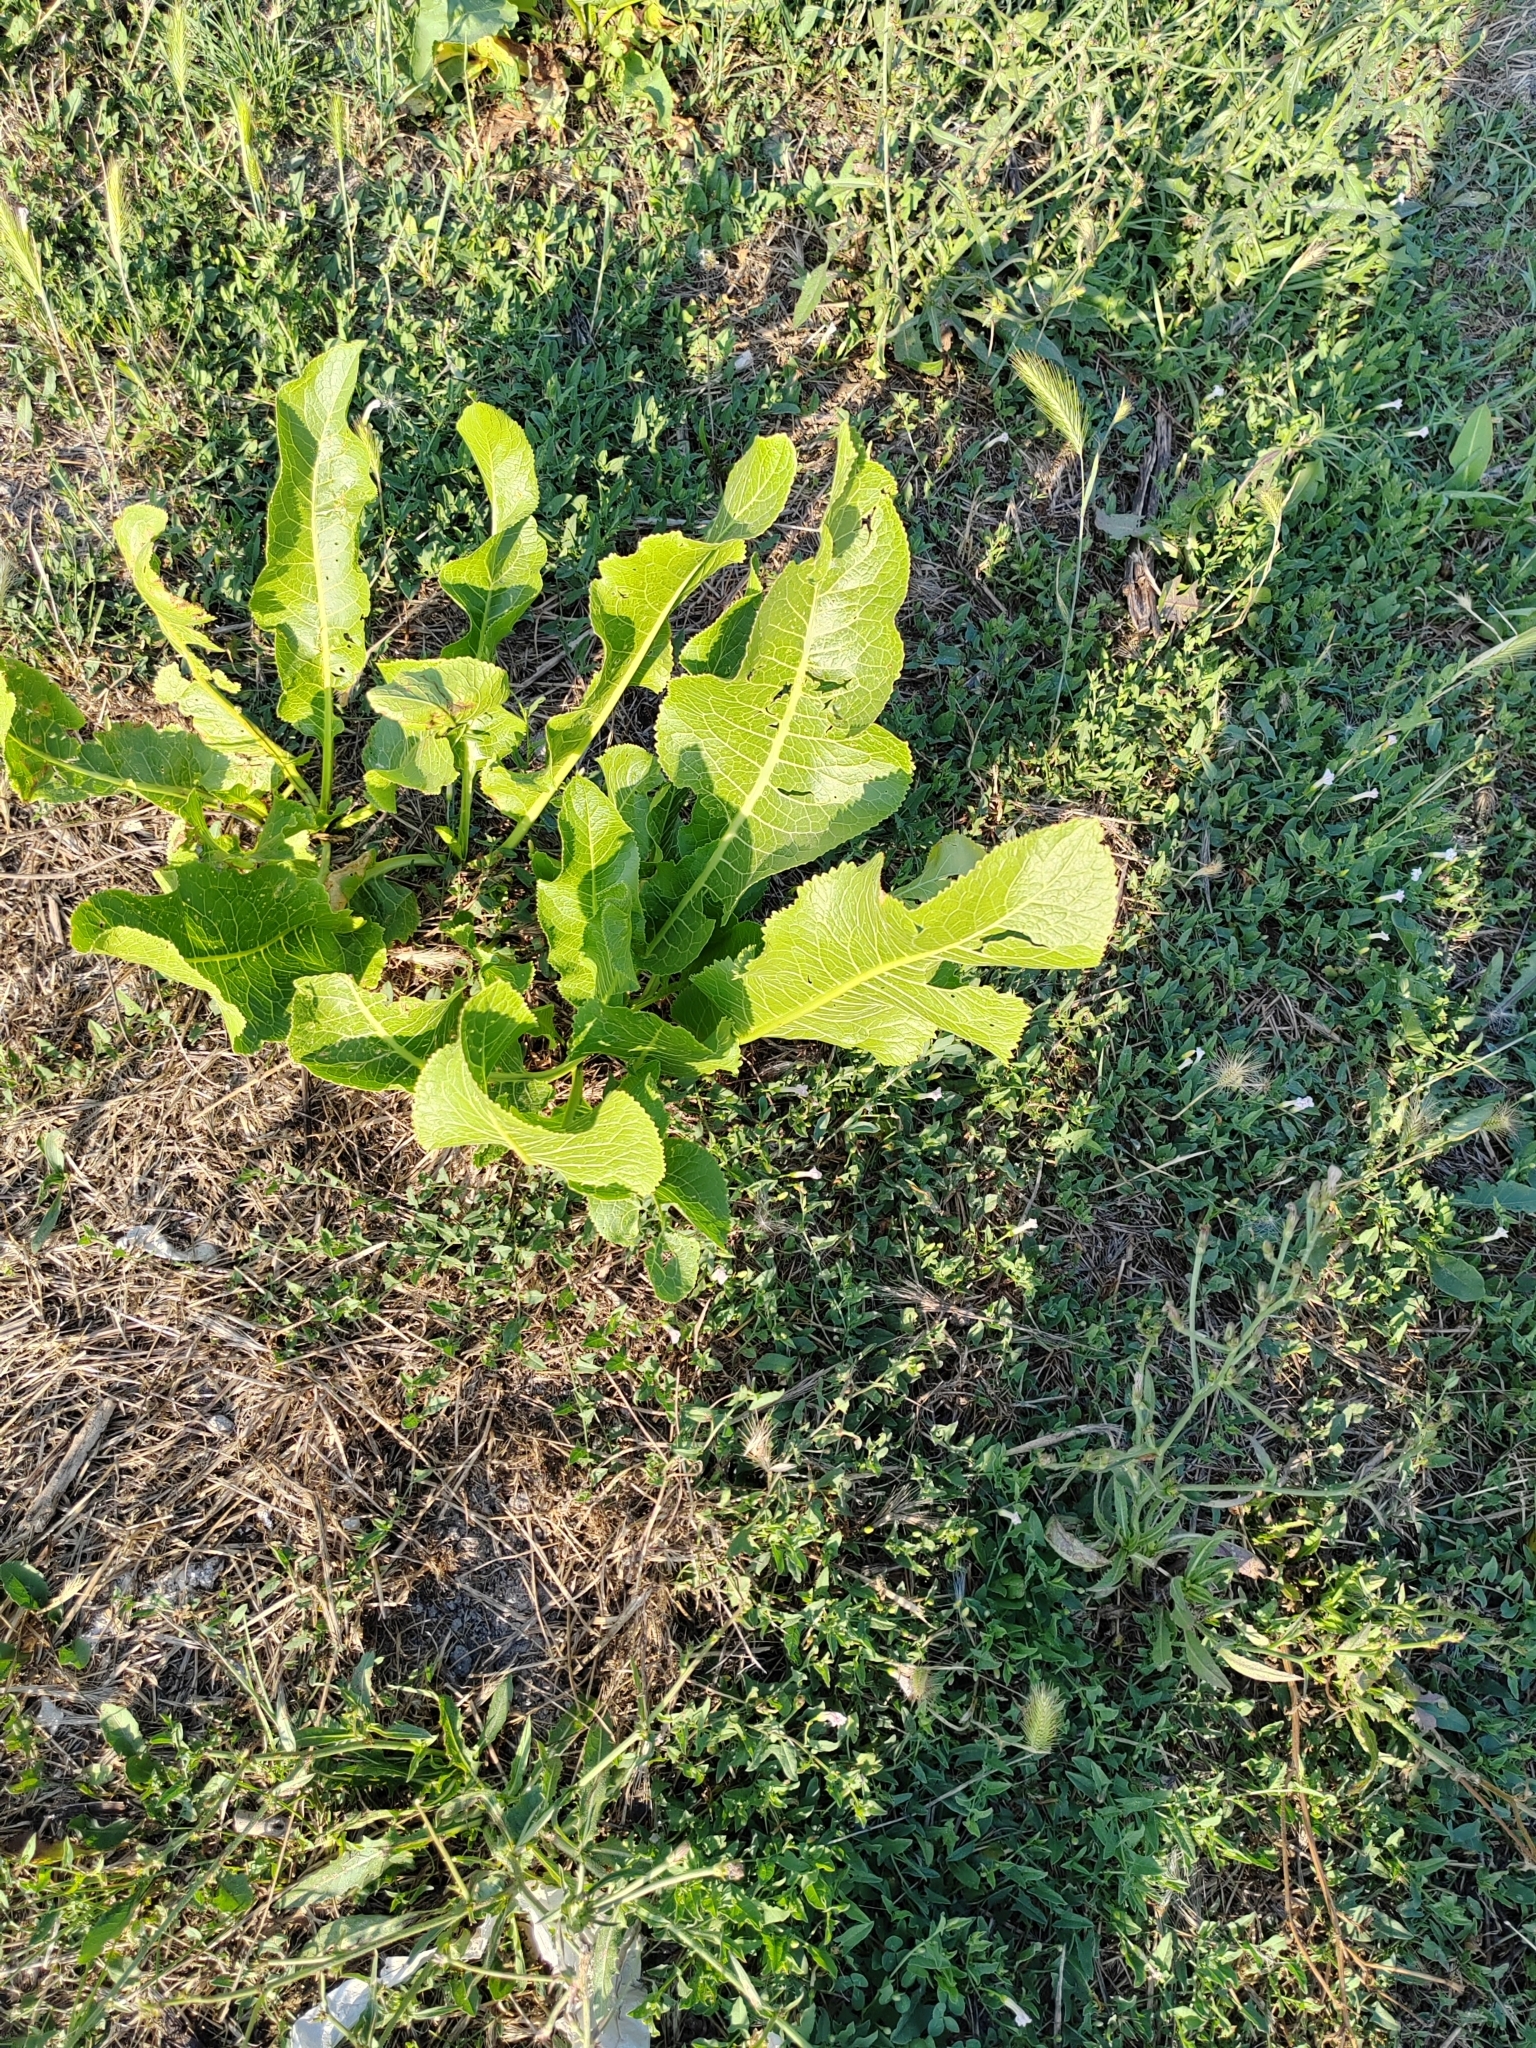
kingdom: Plantae
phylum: Tracheophyta
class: Magnoliopsida
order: Brassicales
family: Brassicaceae
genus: Armoracia
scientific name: Armoracia rusticana
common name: Horseradish
